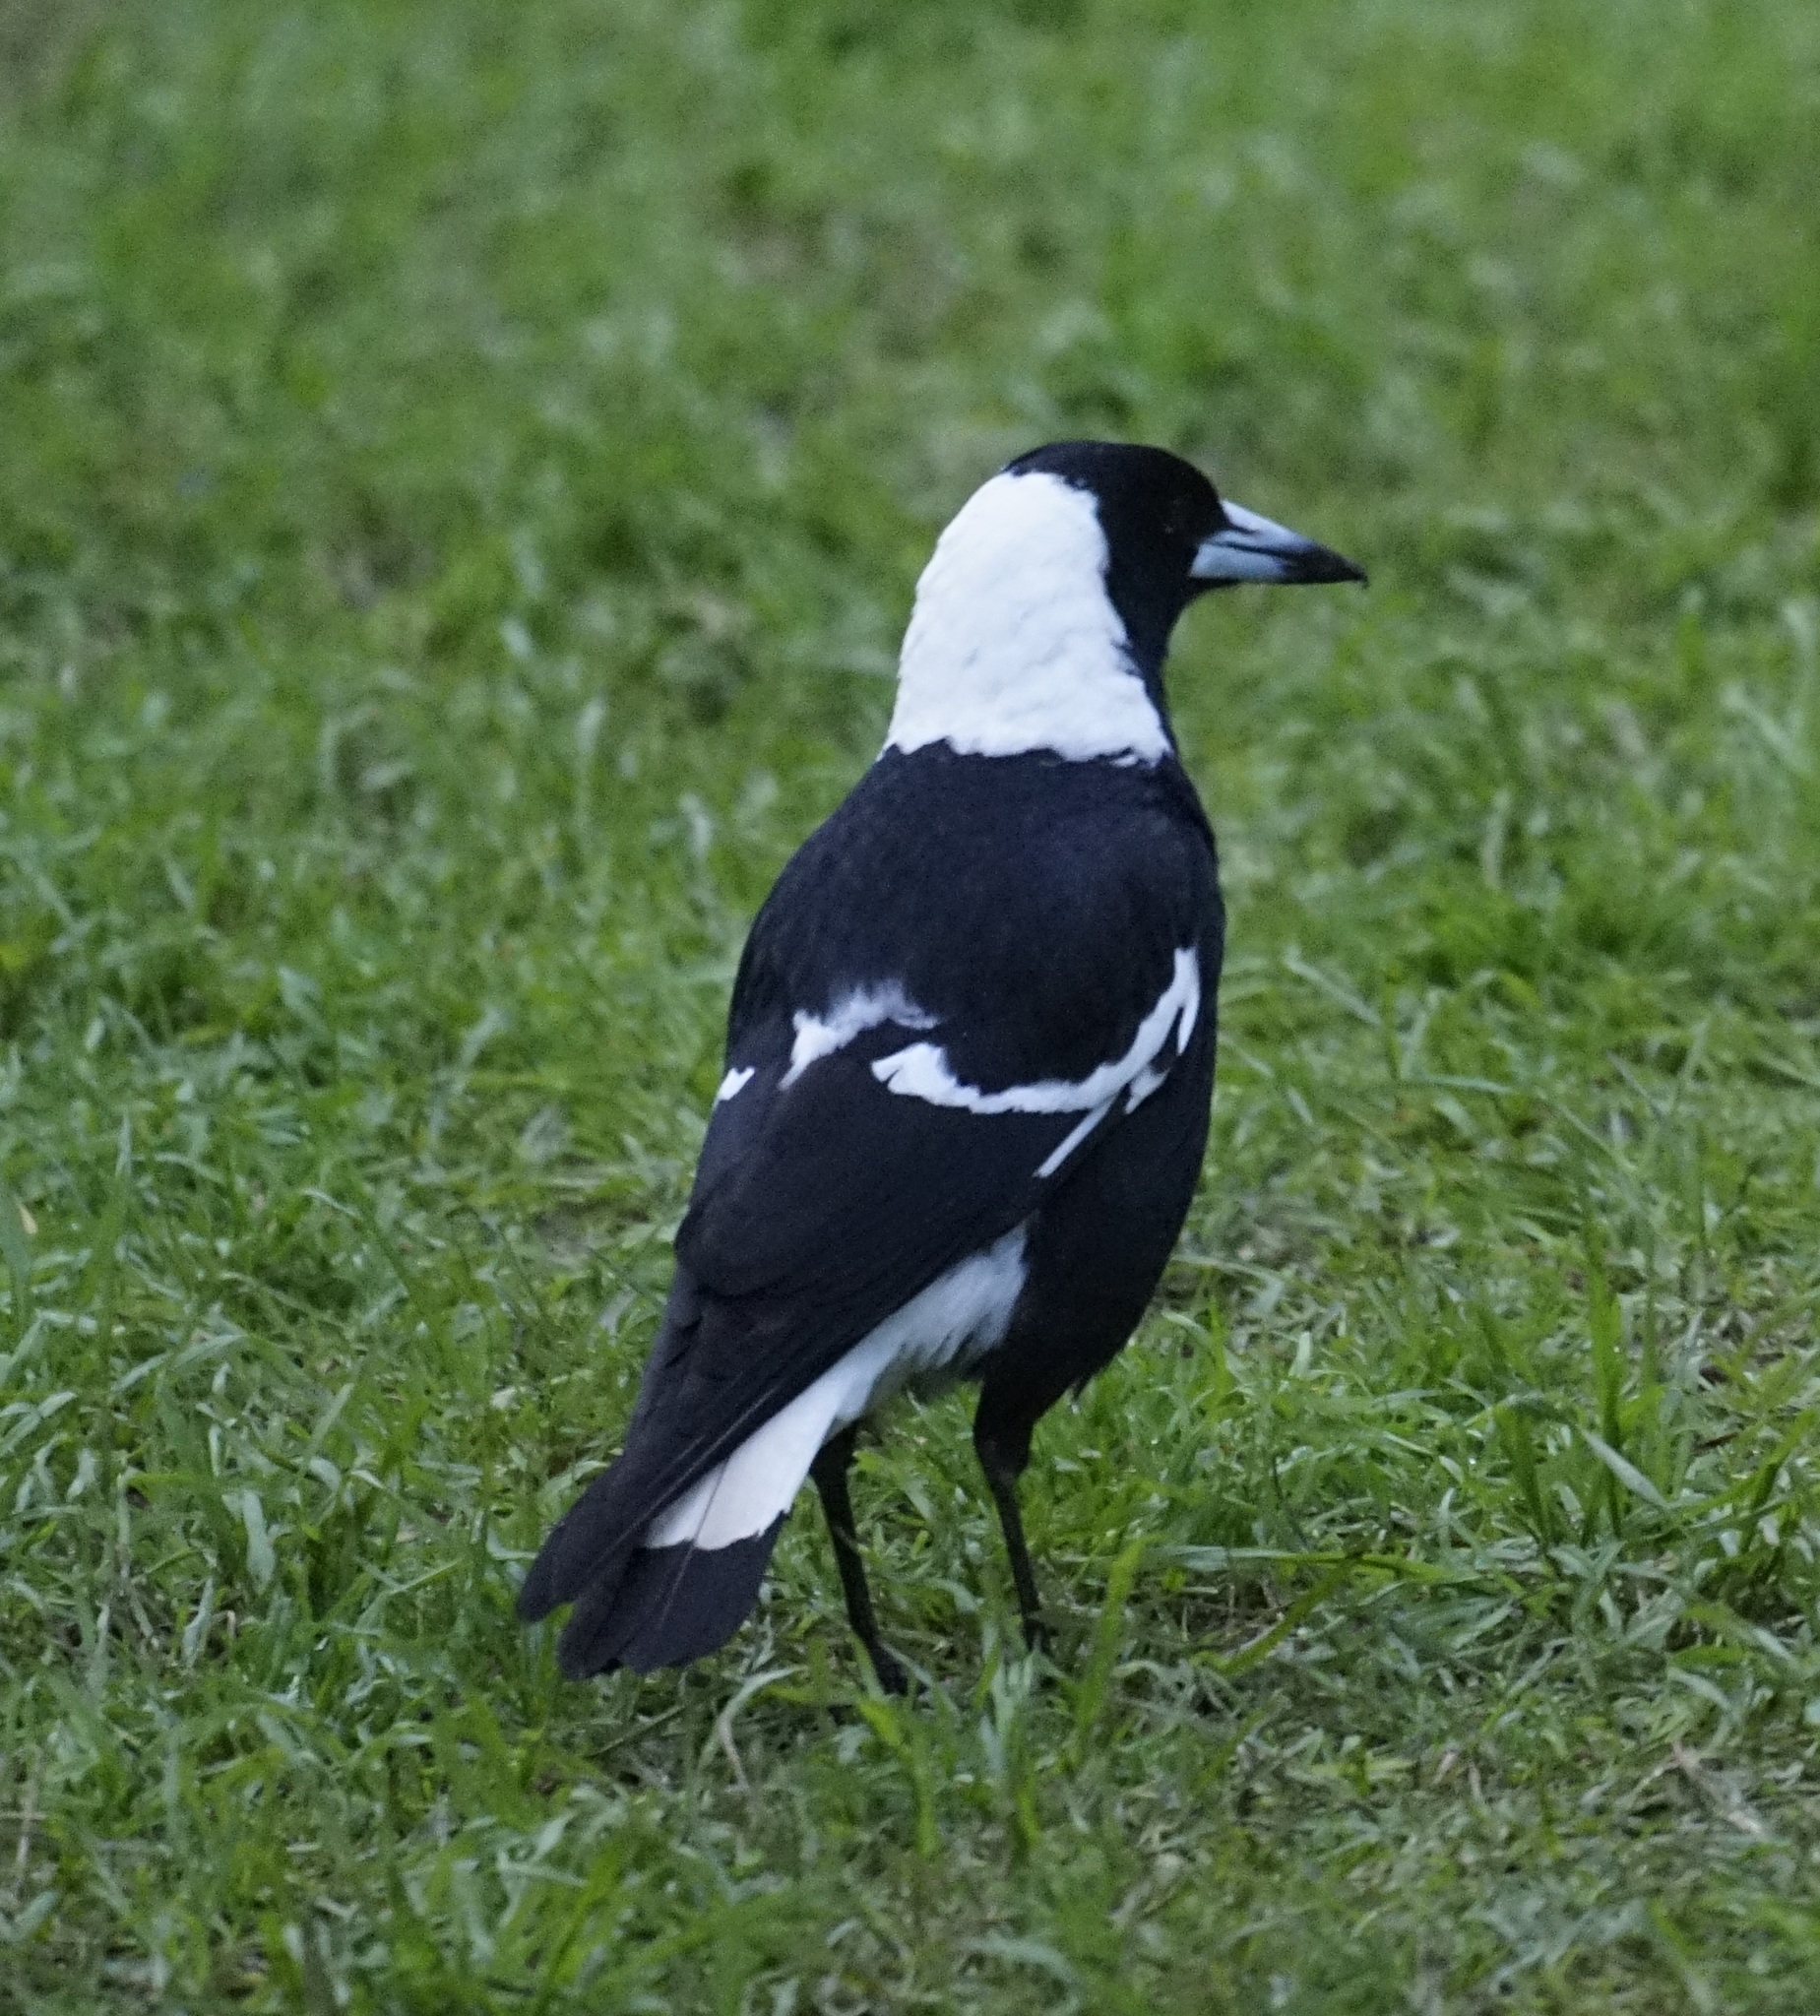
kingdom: Animalia
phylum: Chordata
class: Aves
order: Passeriformes
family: Cracticidae
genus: Gymnorhina
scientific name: Gymnorhina tibicen
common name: Australian magpie
